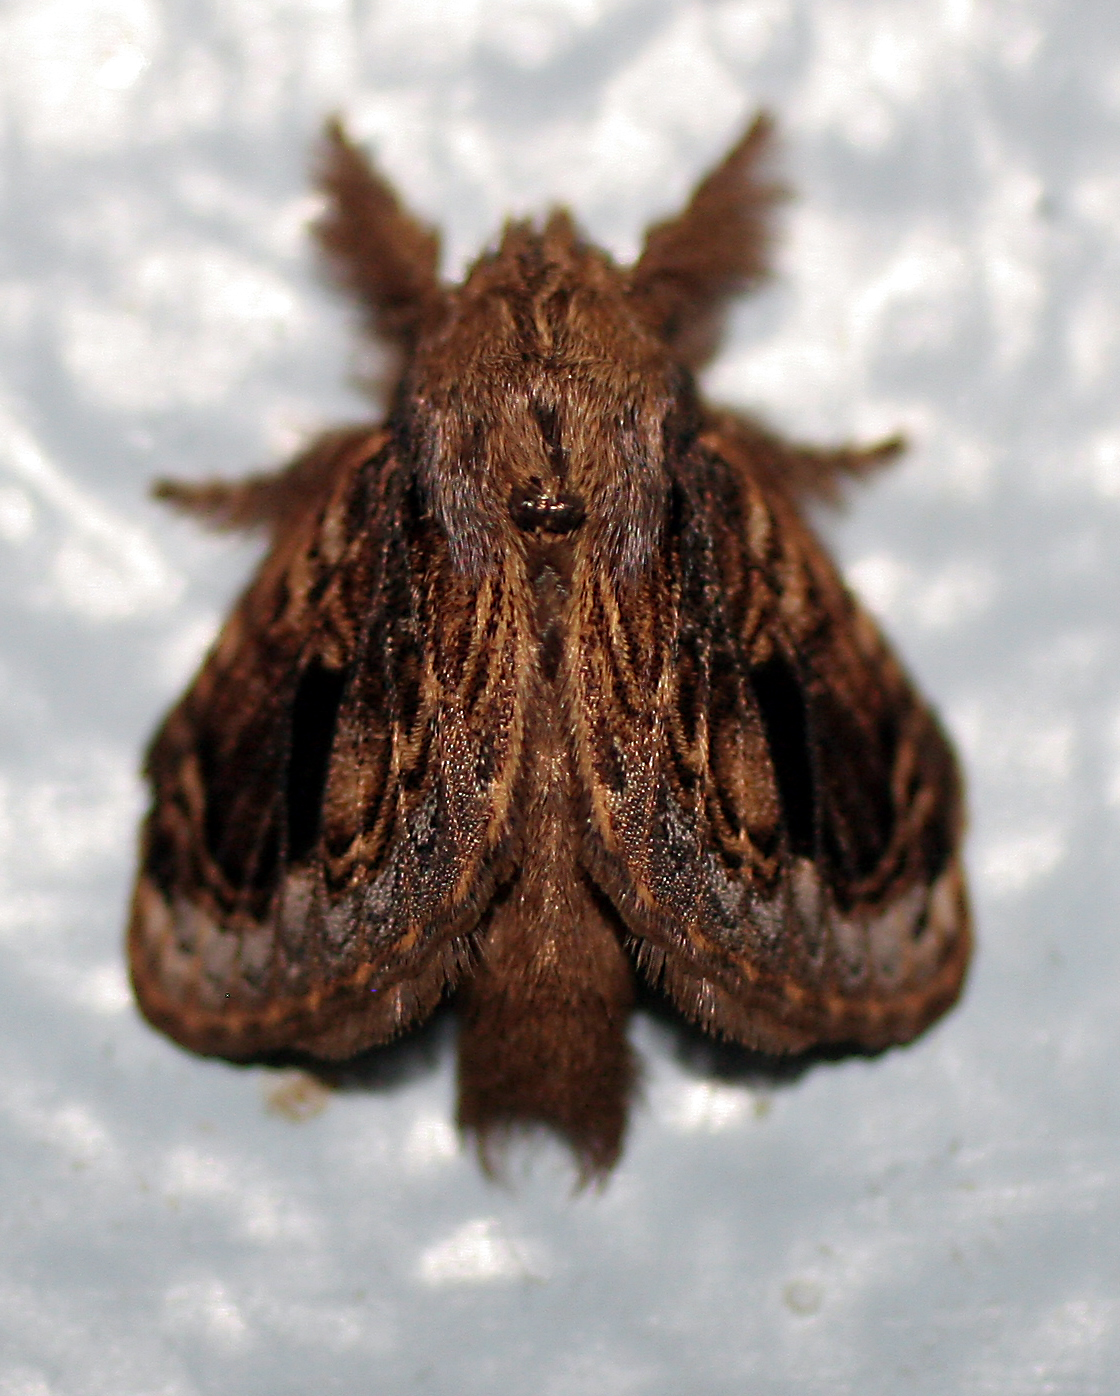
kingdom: Animalia
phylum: Arthropoda
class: Insecta
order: Lepidoptera
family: Lasiocampidae
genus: Euglyphis
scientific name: Euglyphis libnites
